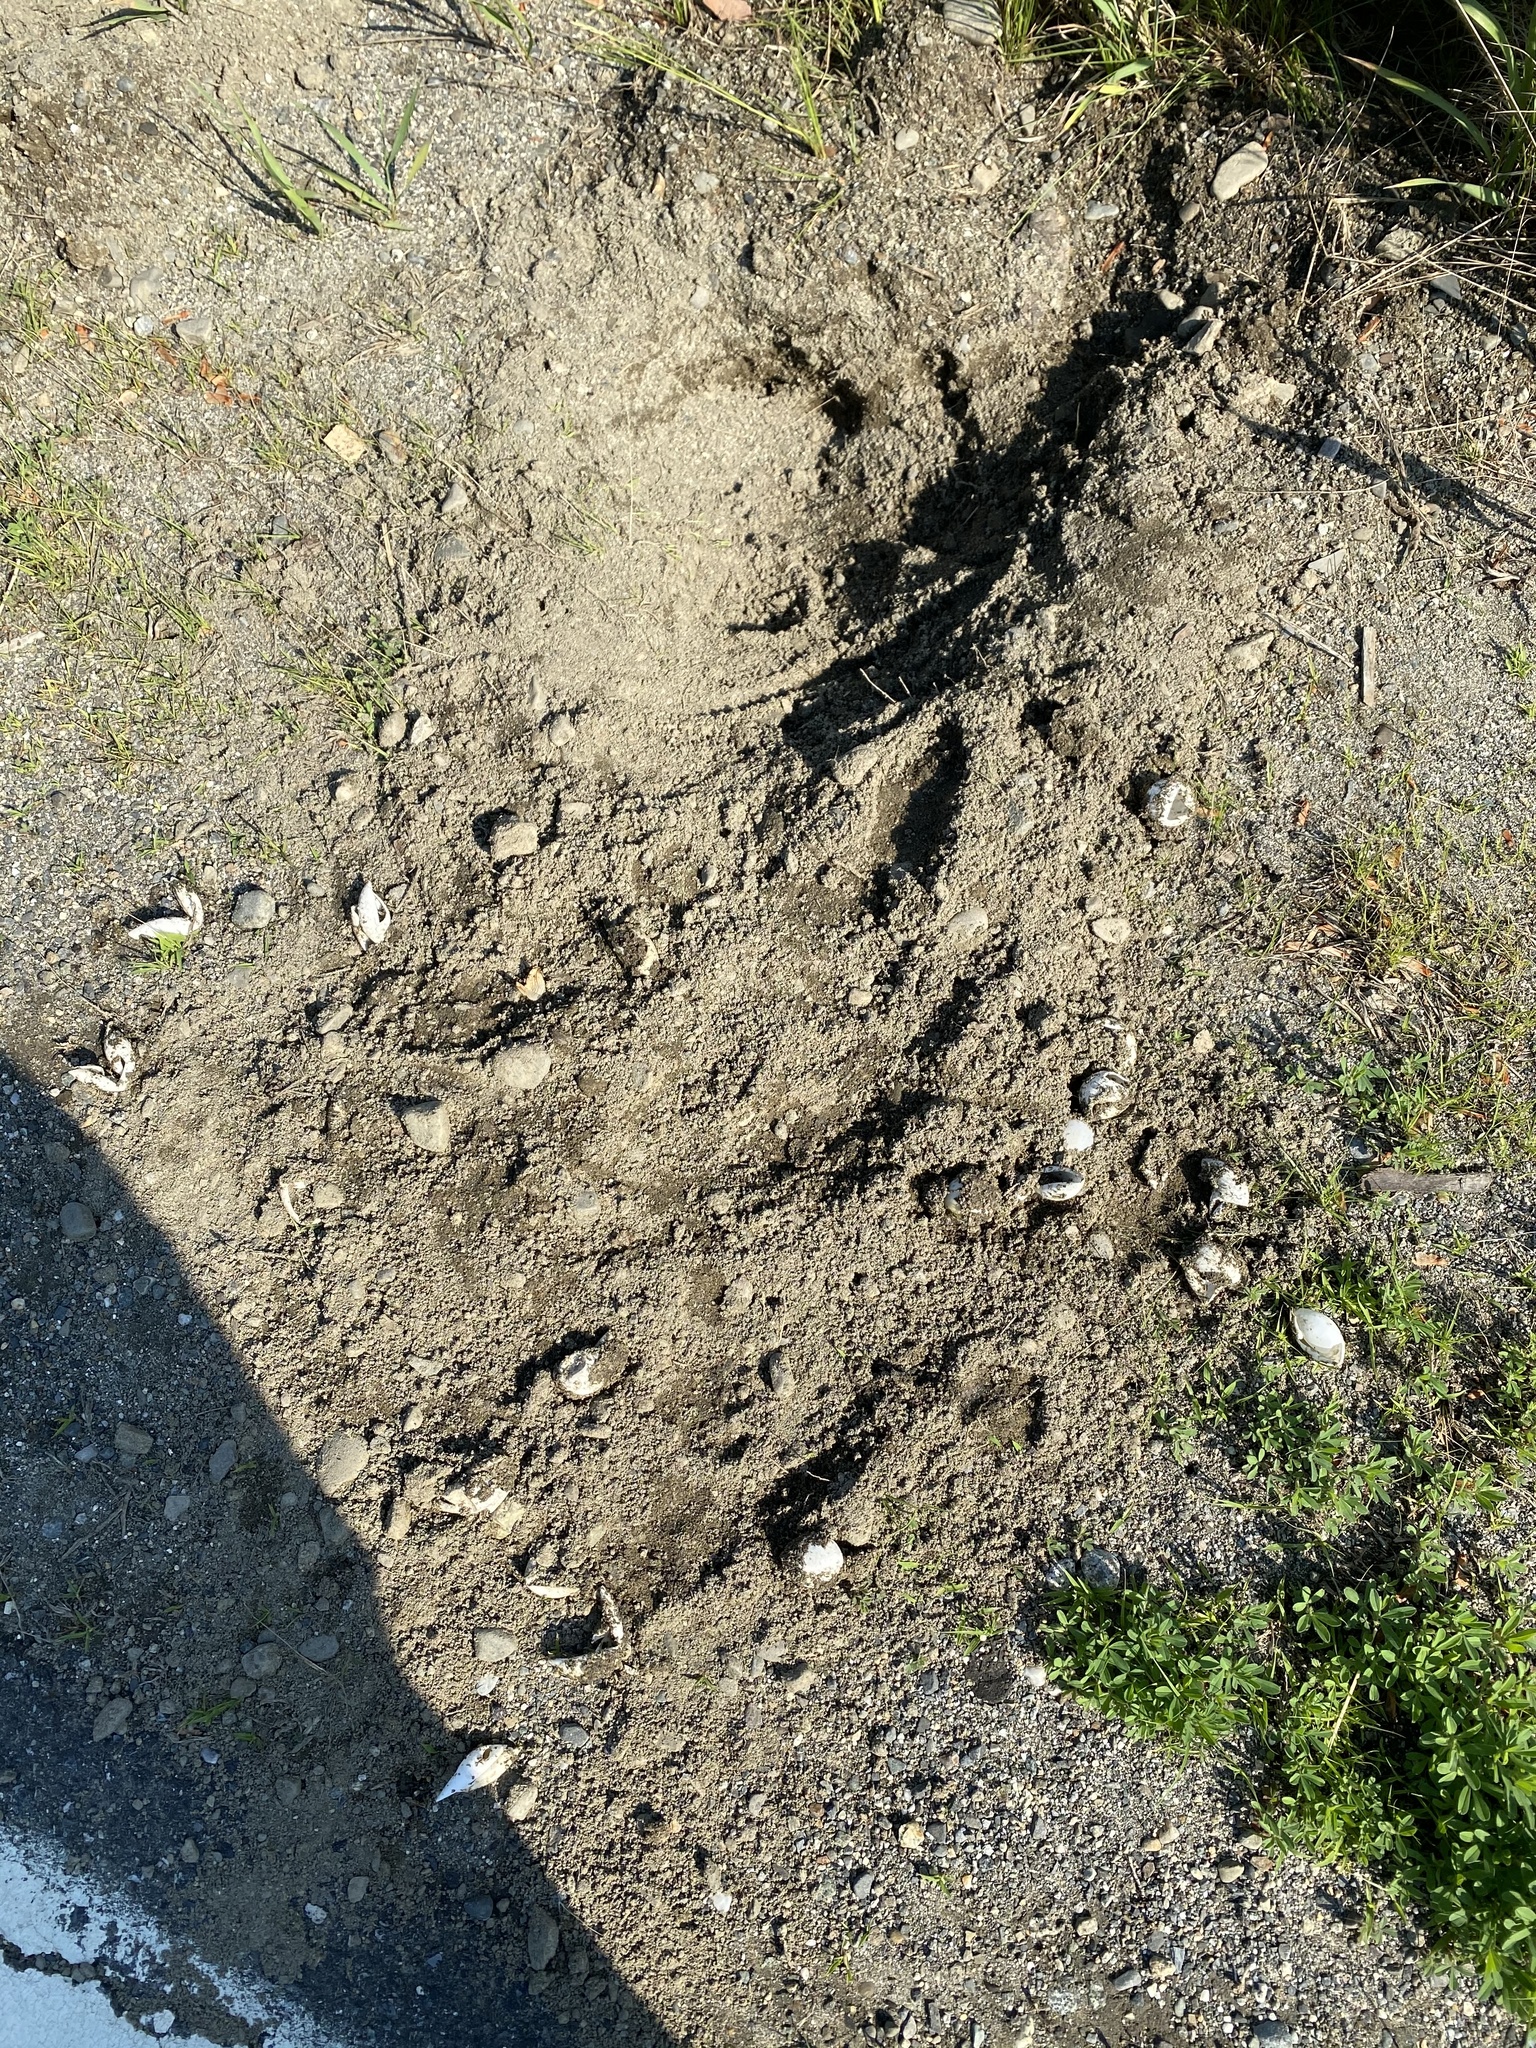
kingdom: Animalia
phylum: Chordata
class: Testudines
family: Chelydridae
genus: Chelydra
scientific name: Chelydra serpentina
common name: Common snapping turtle
